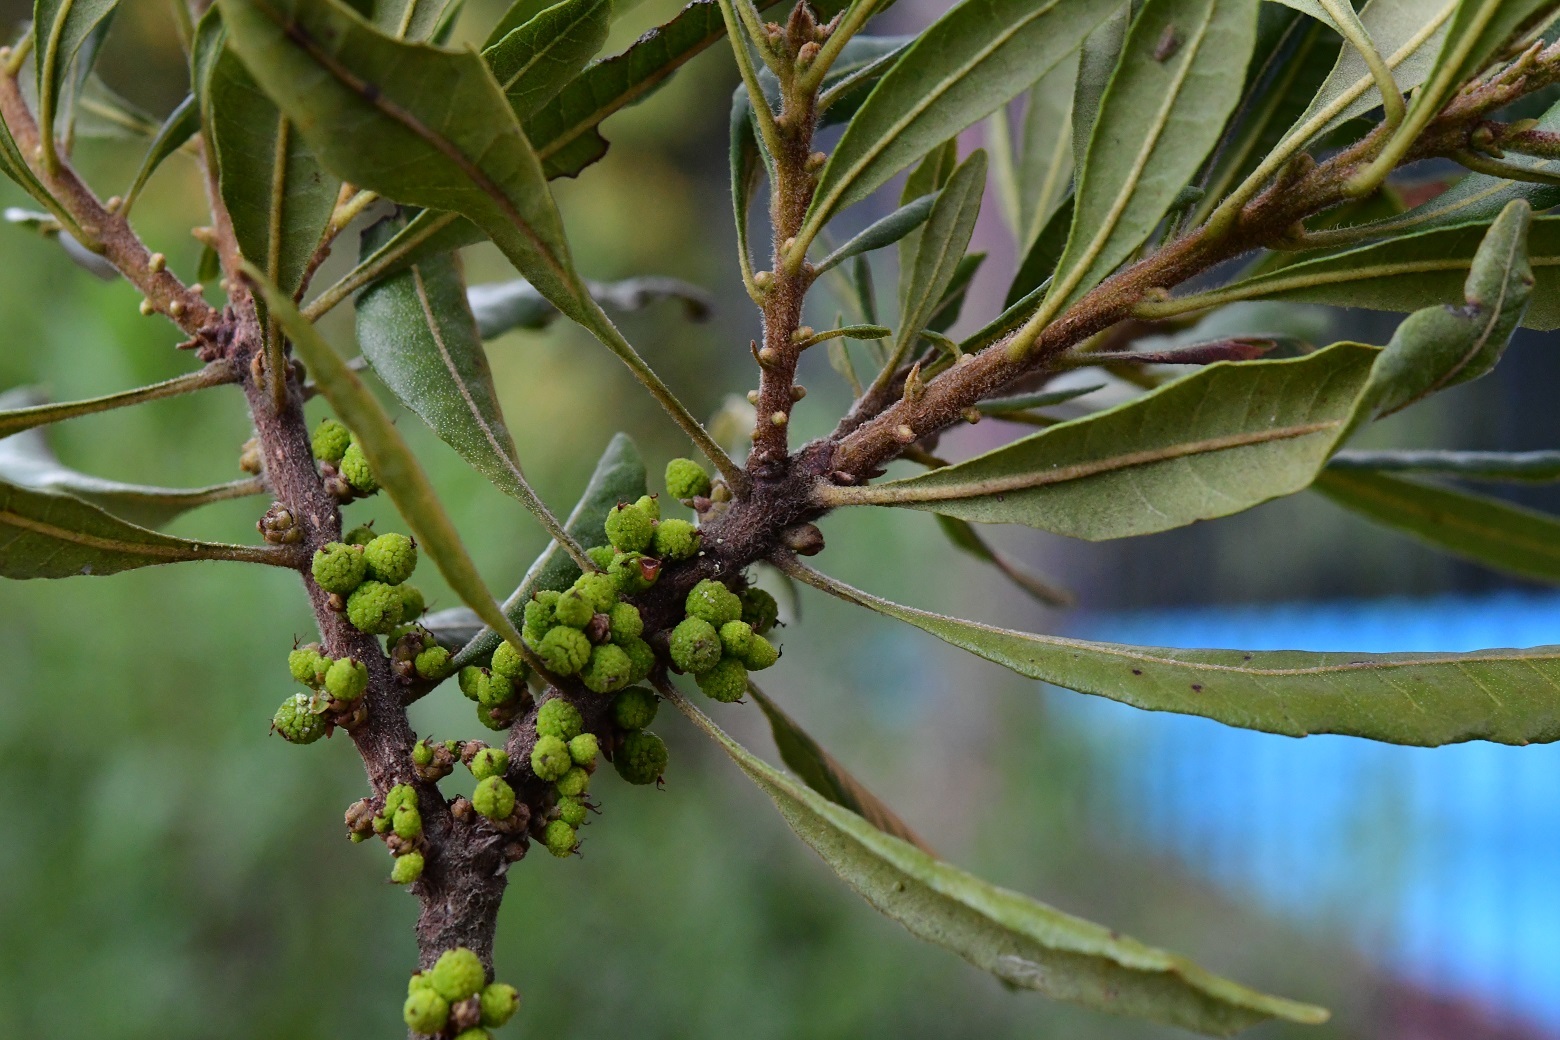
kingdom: Plantae
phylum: Tracheophyta
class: Magnoliopsida
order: Fagales
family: Myricaceae
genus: Morella
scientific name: Morella cerifera
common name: Wax myrtle
